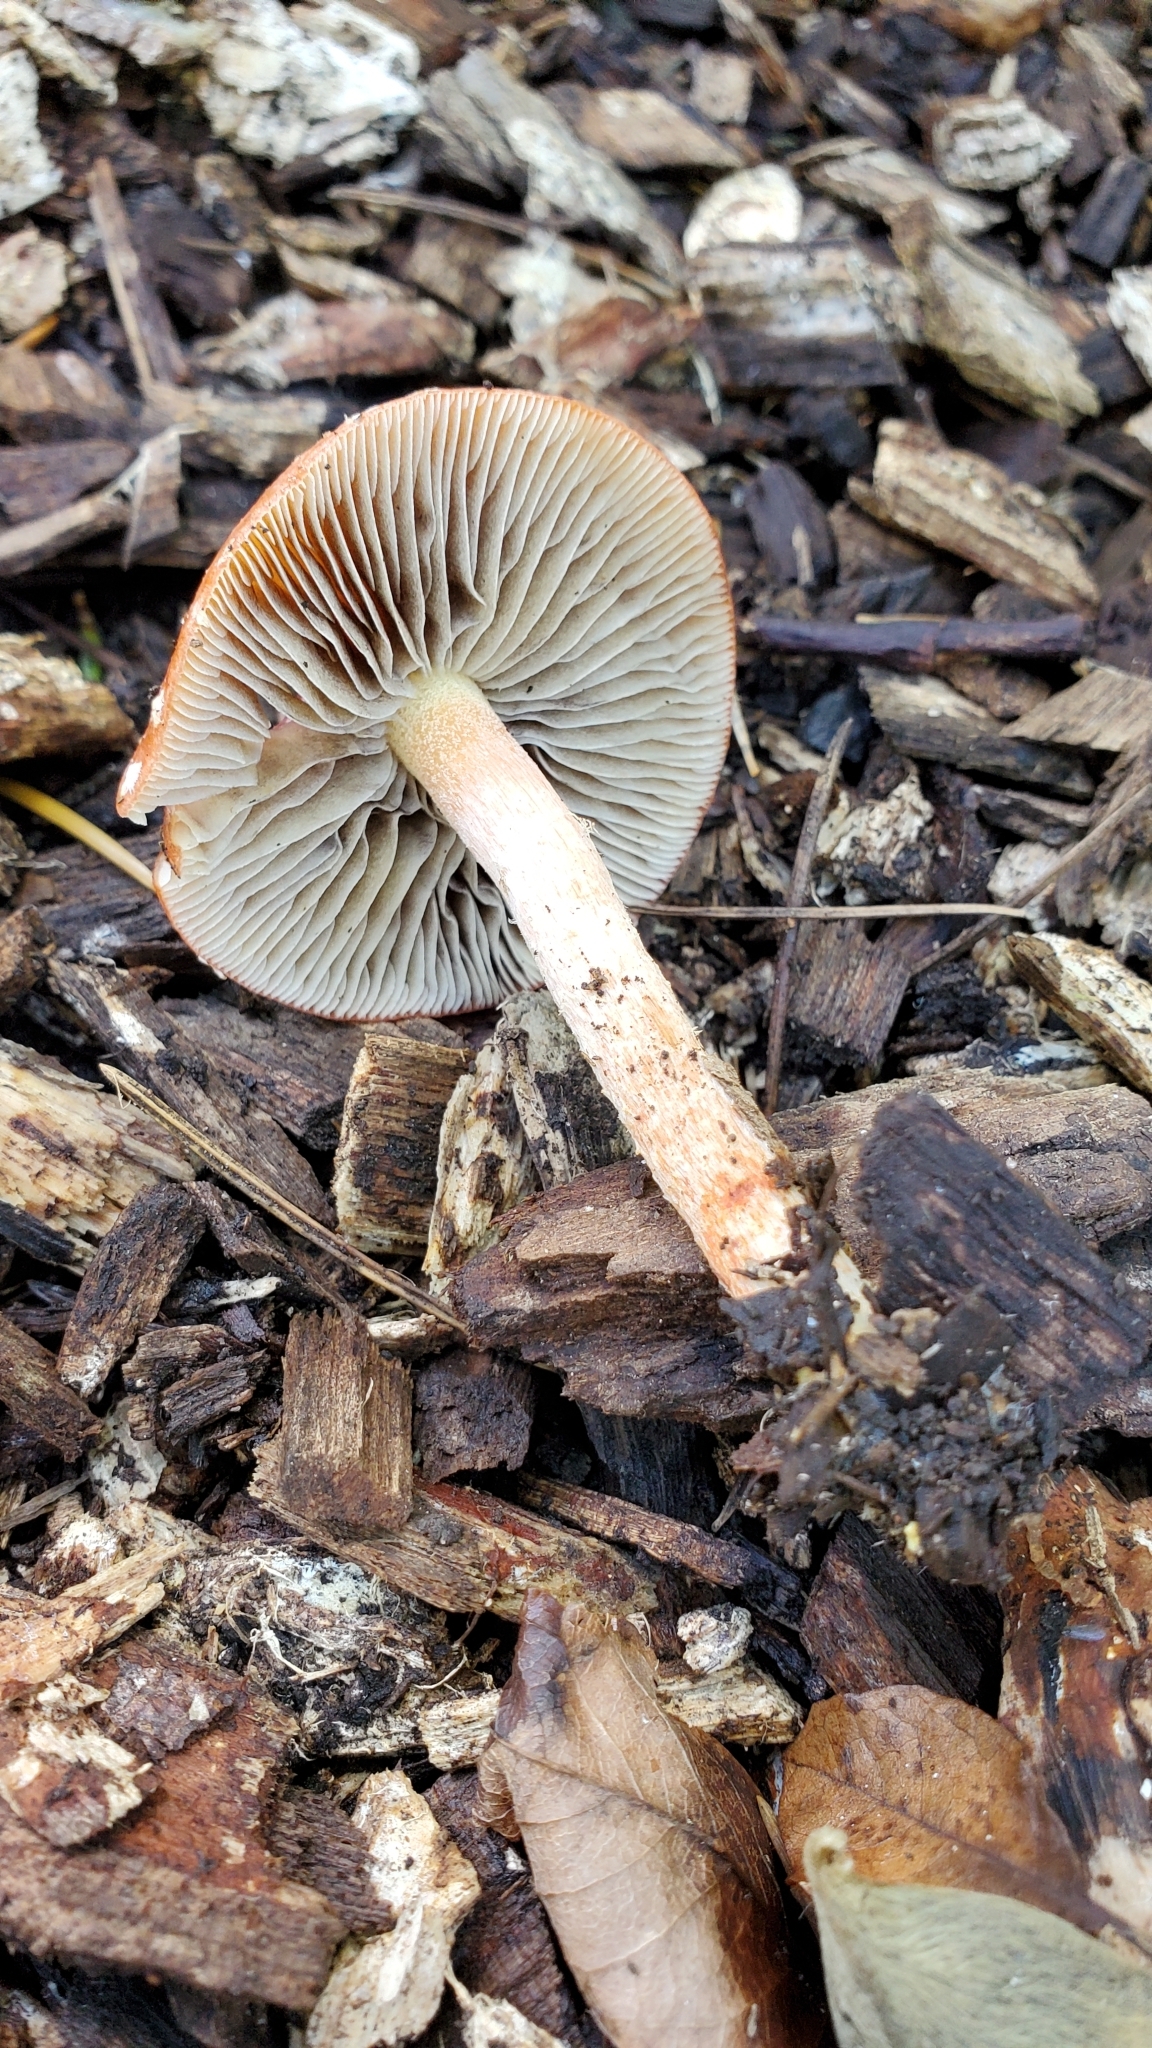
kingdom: Fungi
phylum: Basidiomycota
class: Agaricomycetes
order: Agaricales
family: Strophariaceae
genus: Leratiomyces
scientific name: Leratiomyces ceres
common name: Redlead roundhead
